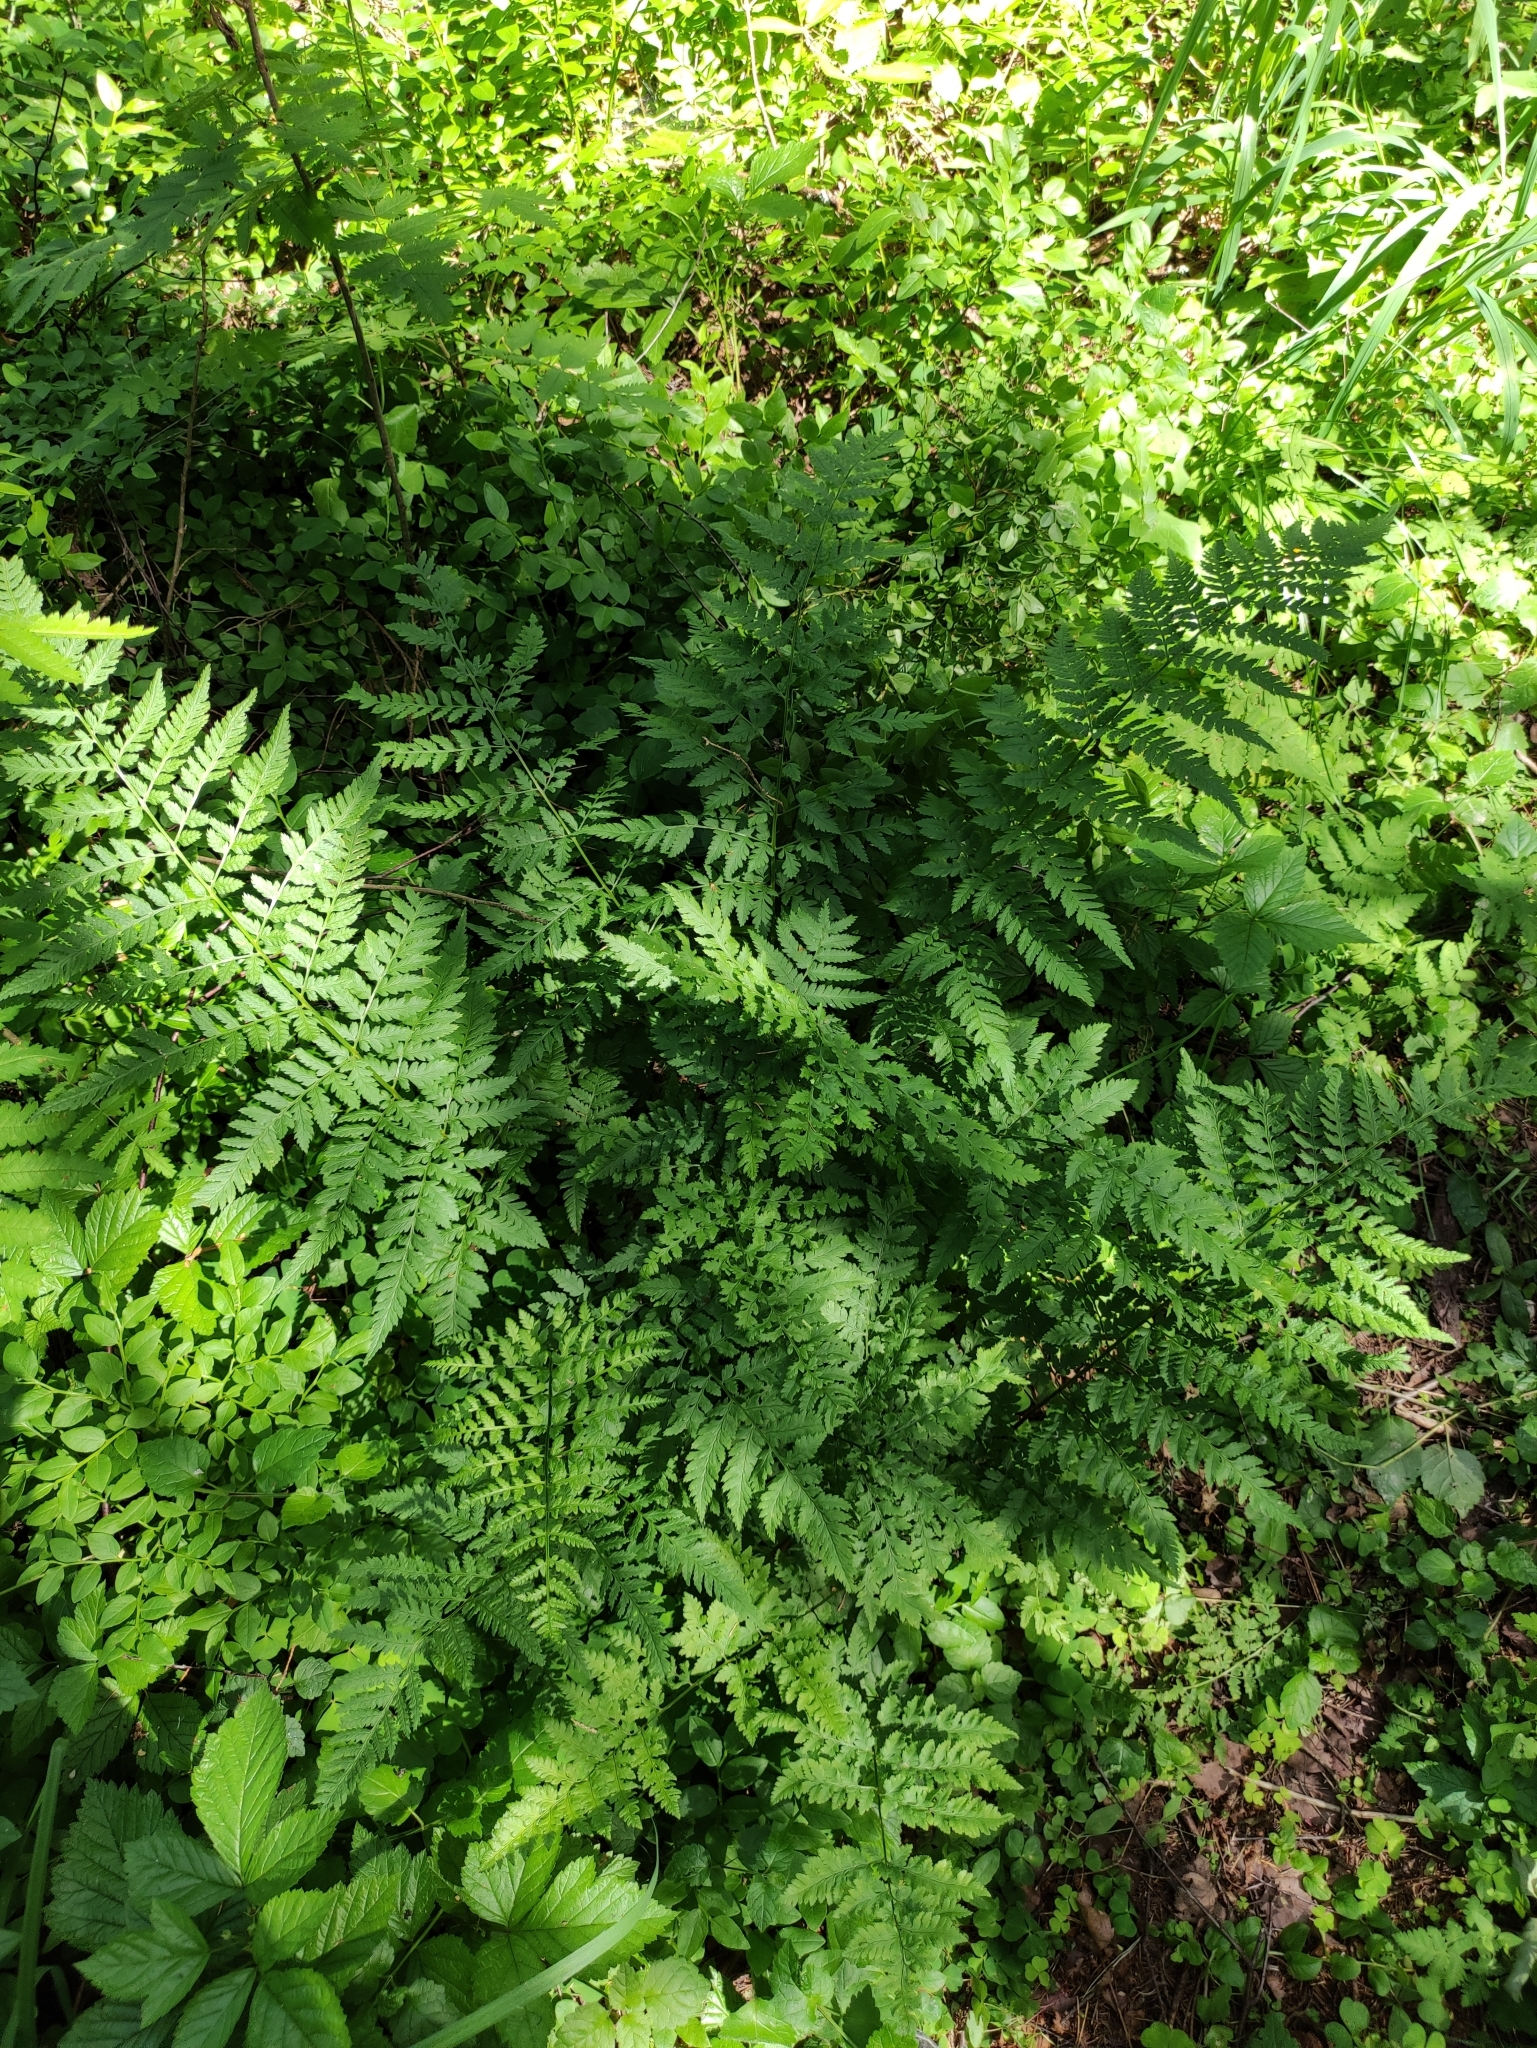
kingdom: Plantae
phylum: Tracheophyta
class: Polypodiopsida
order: Polypodiales
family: Dryopteridaceae
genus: Dryopteris
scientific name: Dryopteris carthusiana
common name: Narrow buckler-fern
